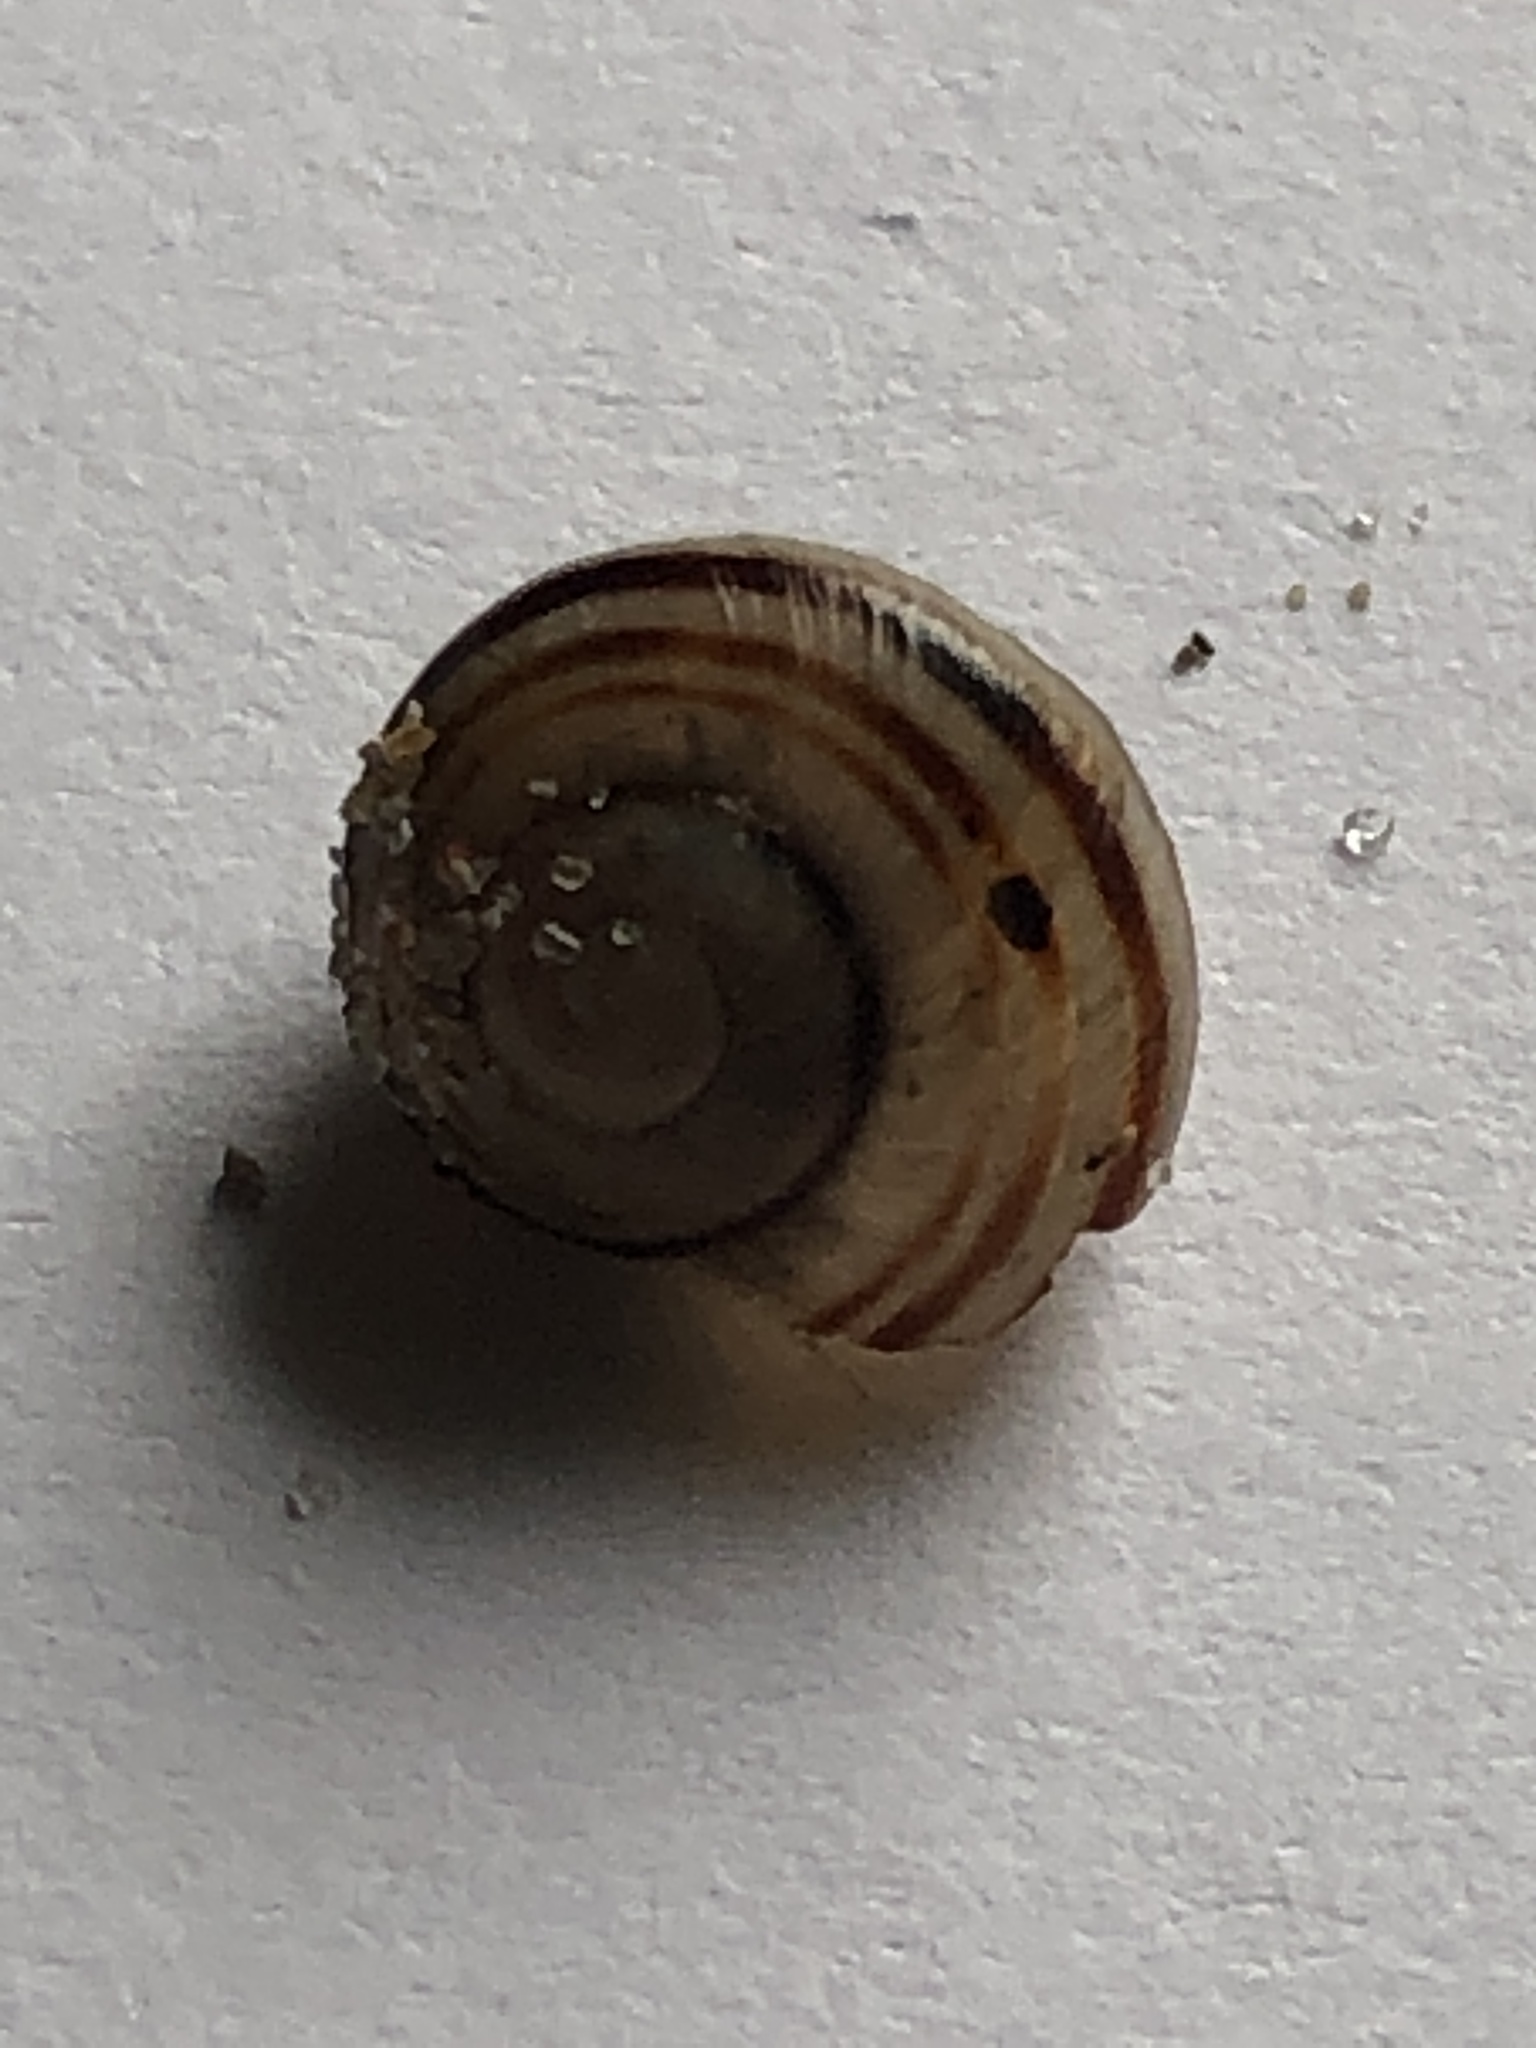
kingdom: Animalia
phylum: Mollusca
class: Gastropoda
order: Stylommatophora
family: Helicidae
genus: Cepaea
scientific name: Cepaea
